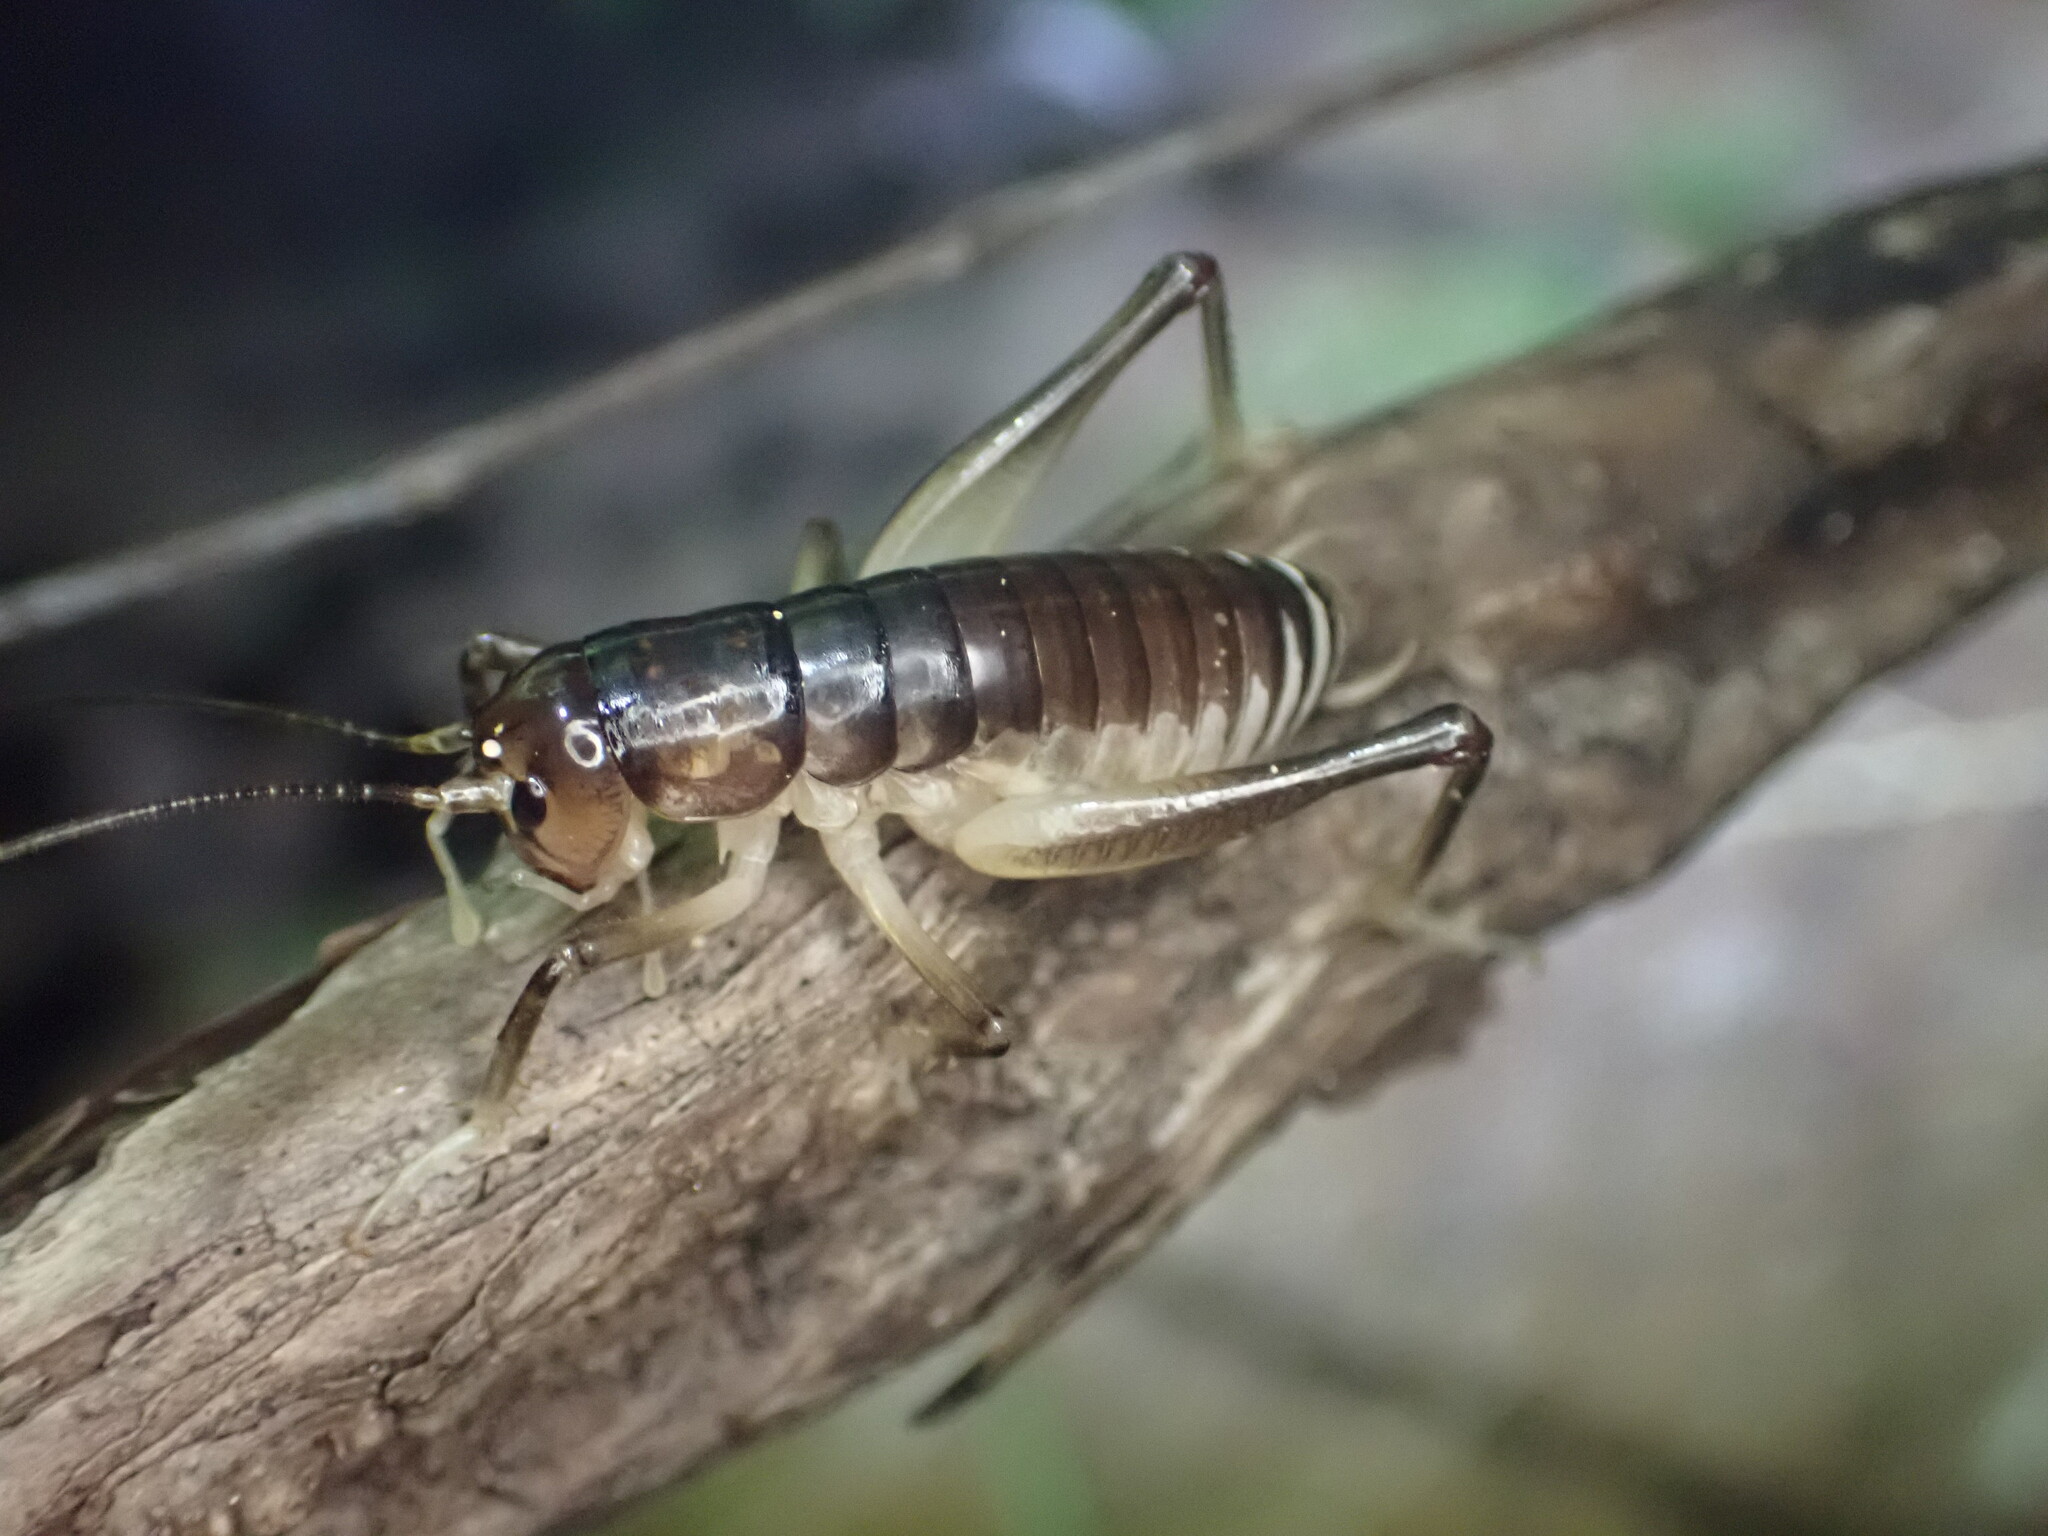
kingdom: Animalia
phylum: Arthropoda
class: Insecta
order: Orthoptera
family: Anostostomatidae
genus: Hemiandrus
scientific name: Hemiandrus pallitarsis
